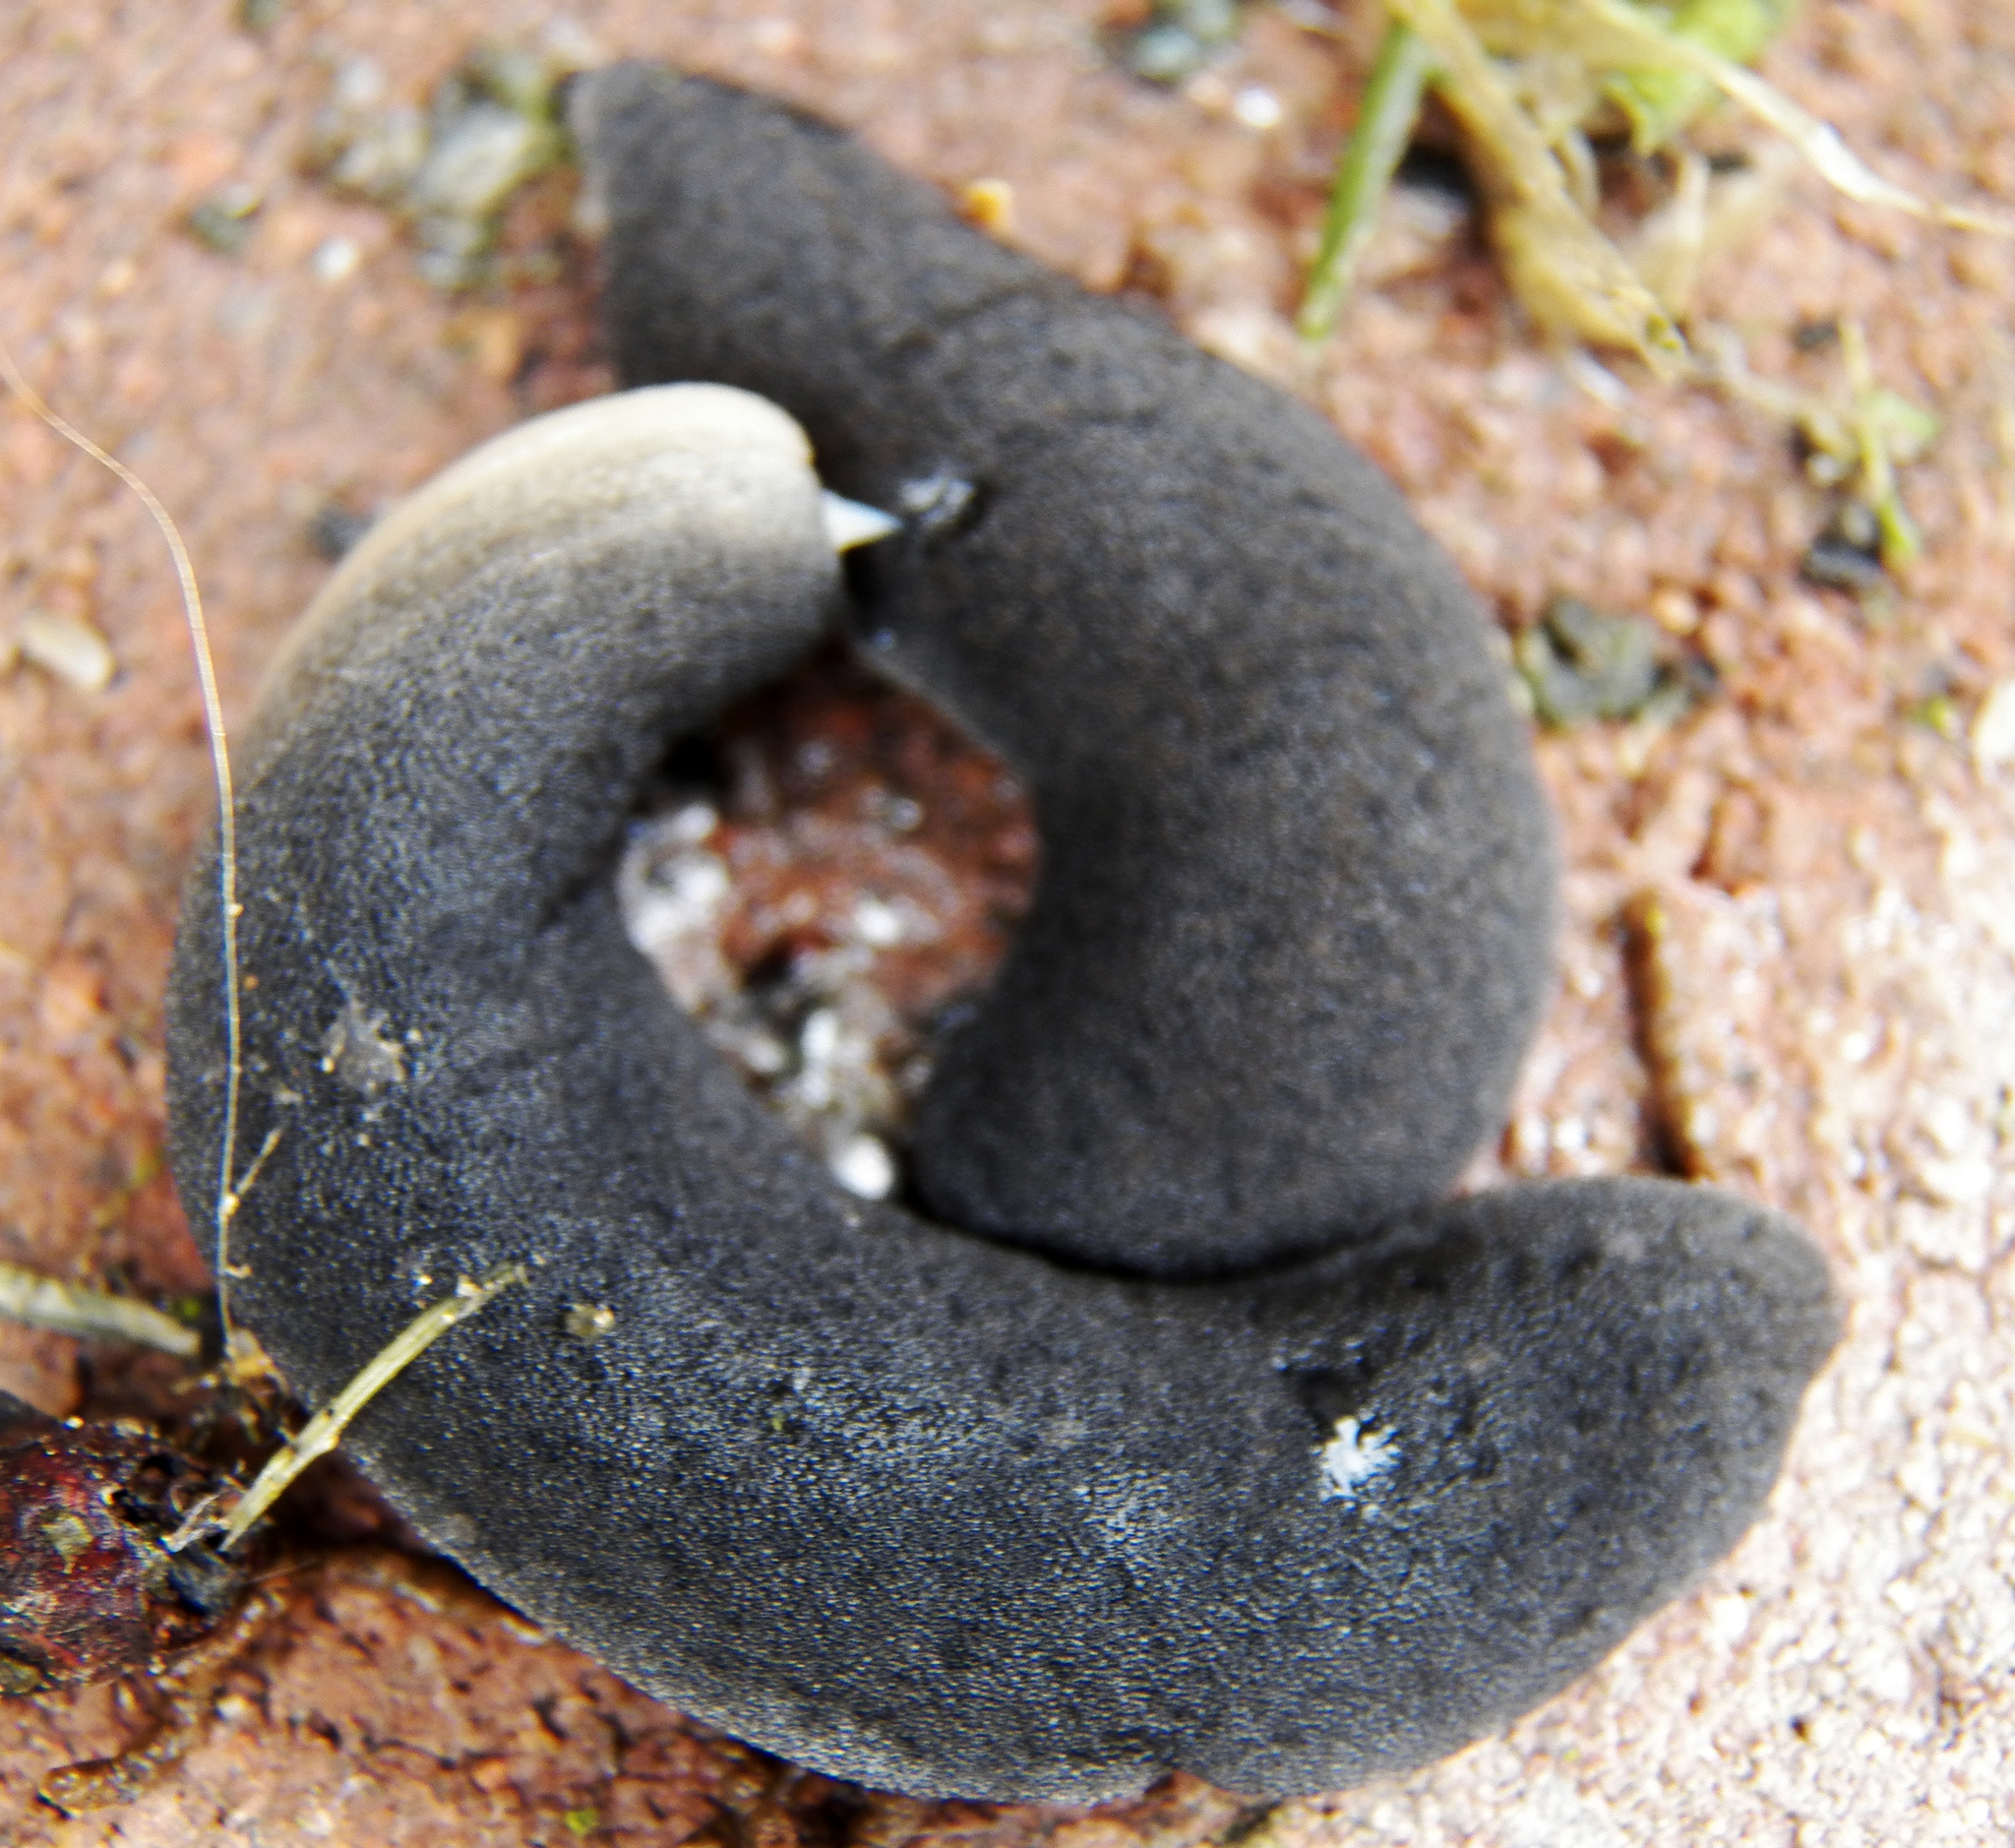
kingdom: Animalia
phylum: Mollusca
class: Gastropoda
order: Systellommatophora
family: Veronicellidae
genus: Belocaulus
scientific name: Belocaulus angustipes
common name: Black velvet leatherleaf slug
